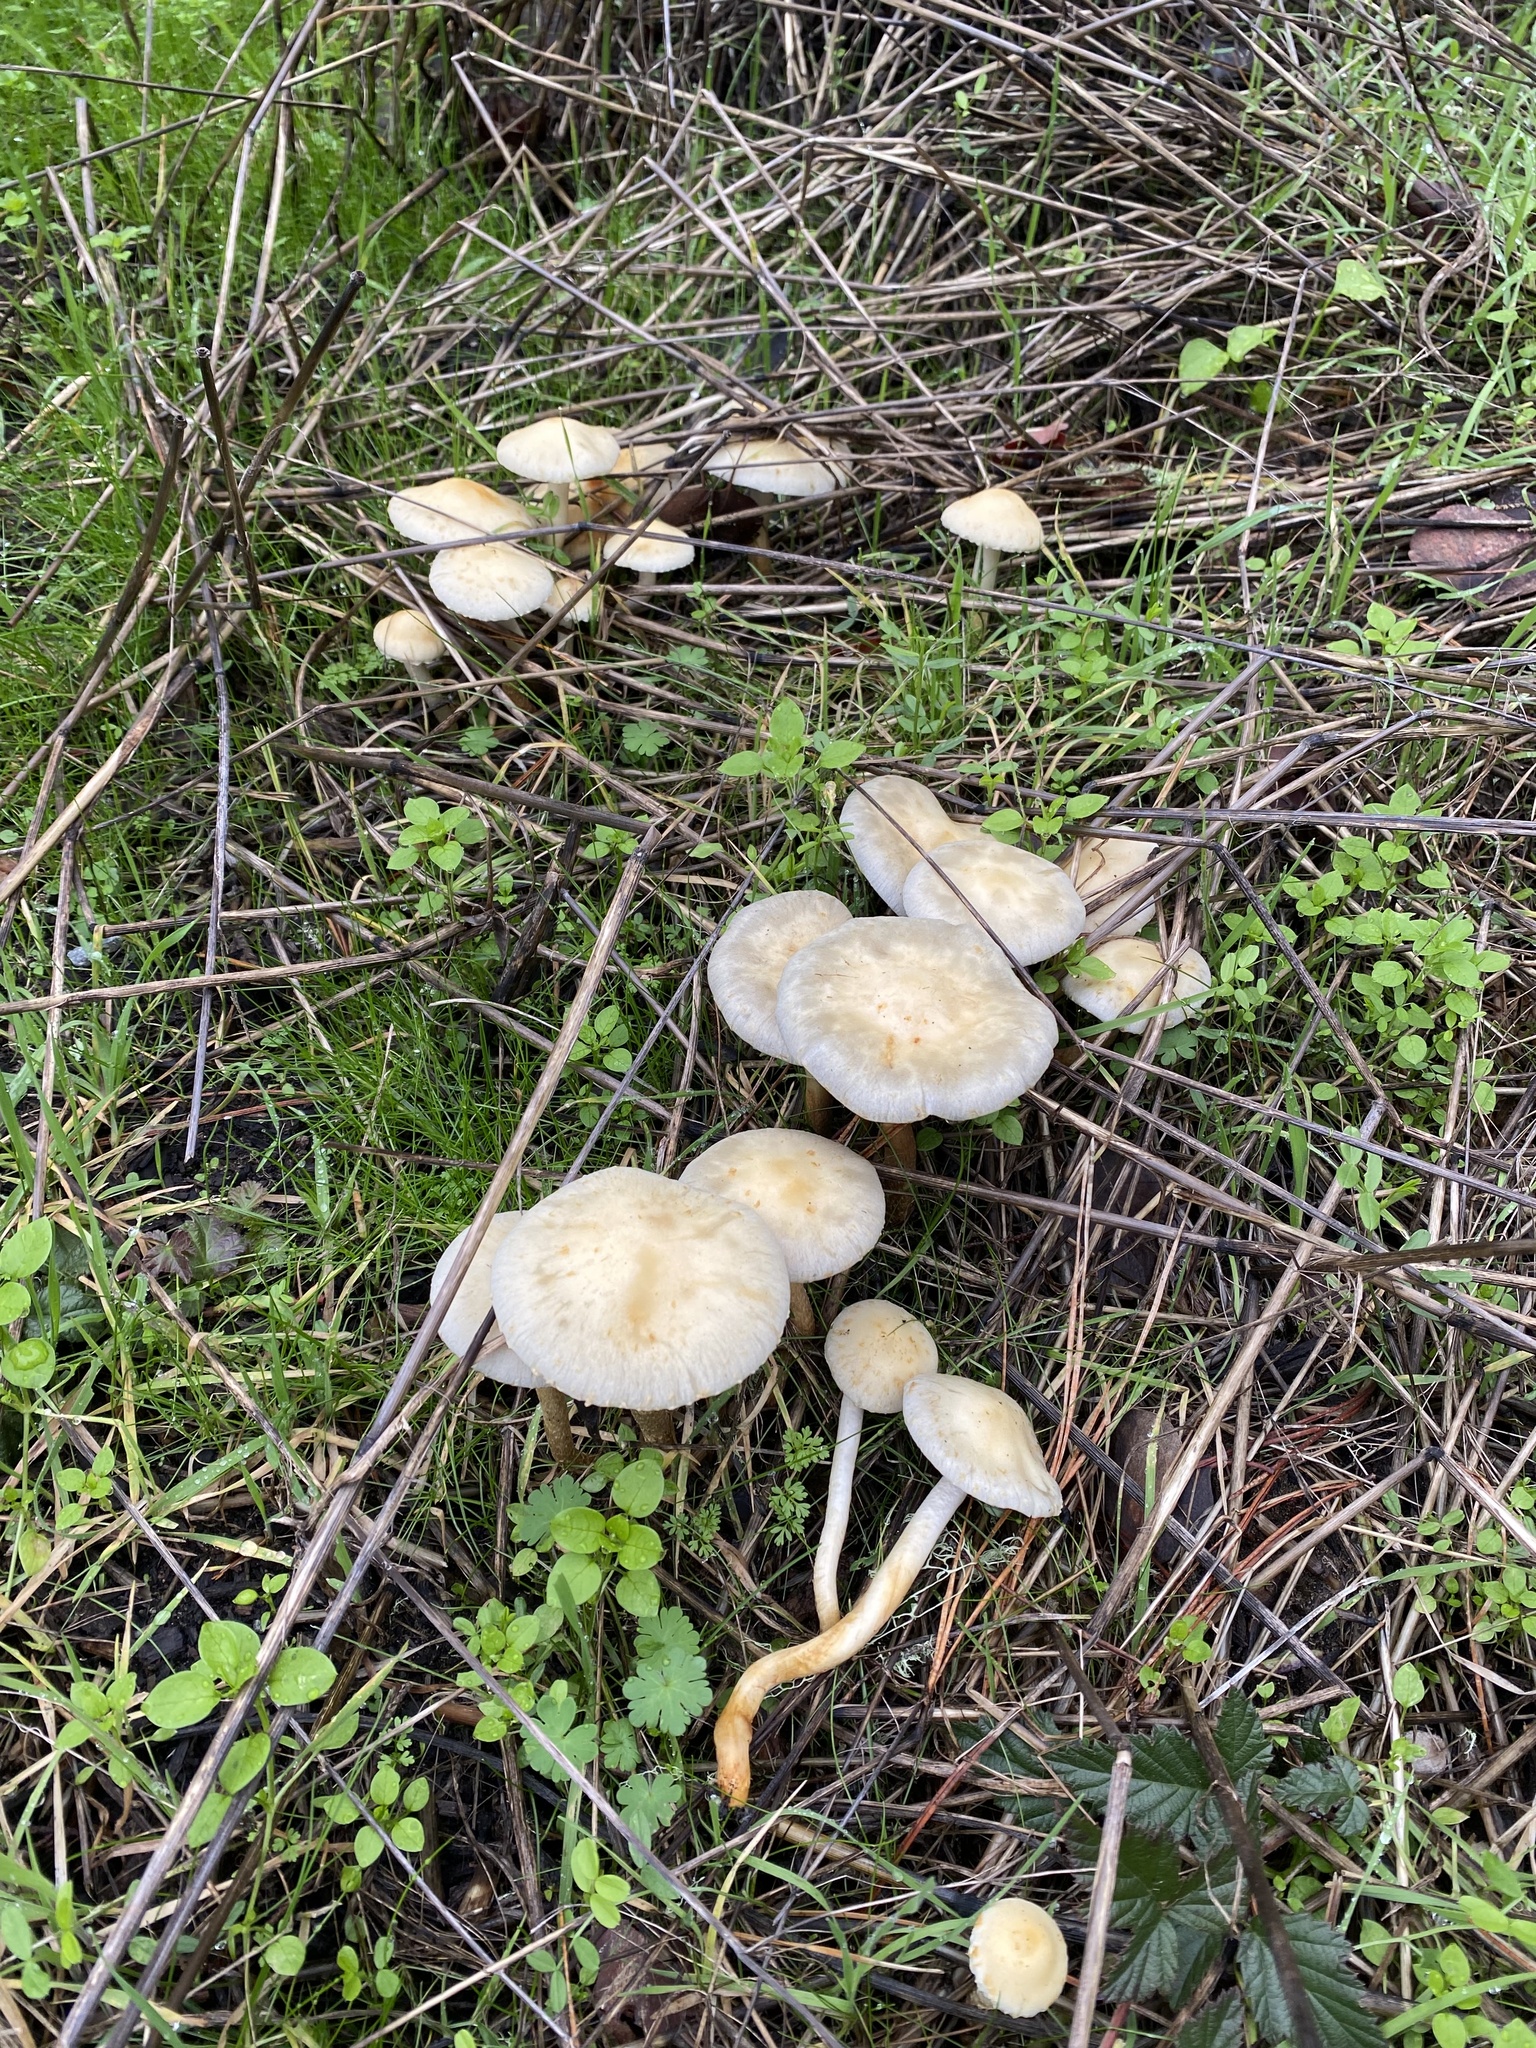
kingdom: Fungi
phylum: Basidiomycota
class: Agaricomycetes
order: Agaricales
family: Strophariaceae
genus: Leratiomyces
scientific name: Leratiomyces percevalii
